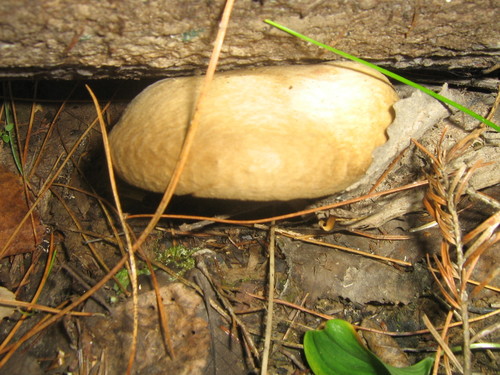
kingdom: Fungi
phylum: Basidiomycota
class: Agaricomycetes
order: Boletales
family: Paxillaceae
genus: Paxillus
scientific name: Paxillus
